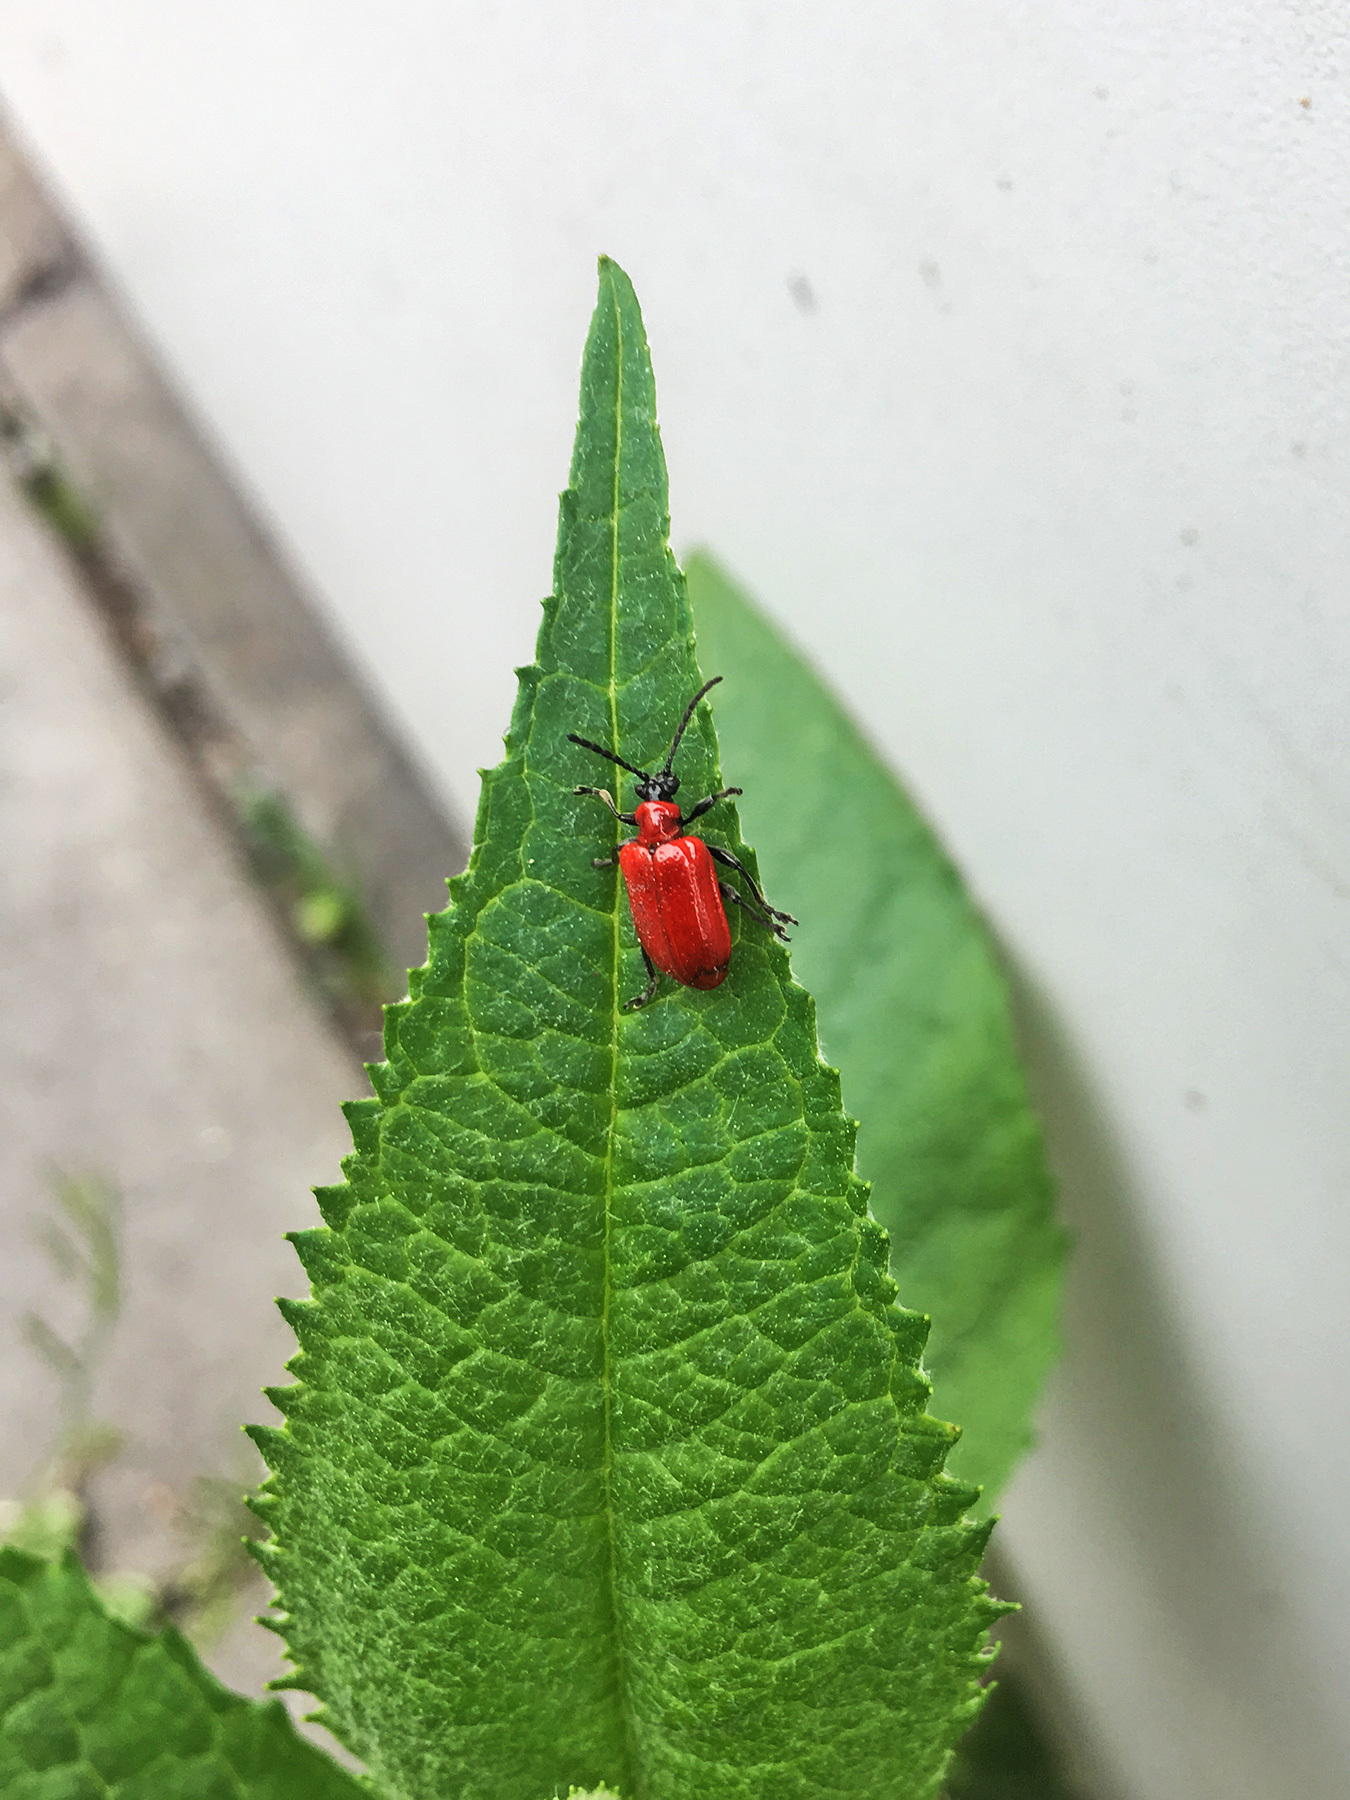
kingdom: Animalia
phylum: Arthropoda
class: Insecta
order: Coleoptera
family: Chrysomelidae
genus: Lilioceris
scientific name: Lilioceris lilii
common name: Lily beetle
